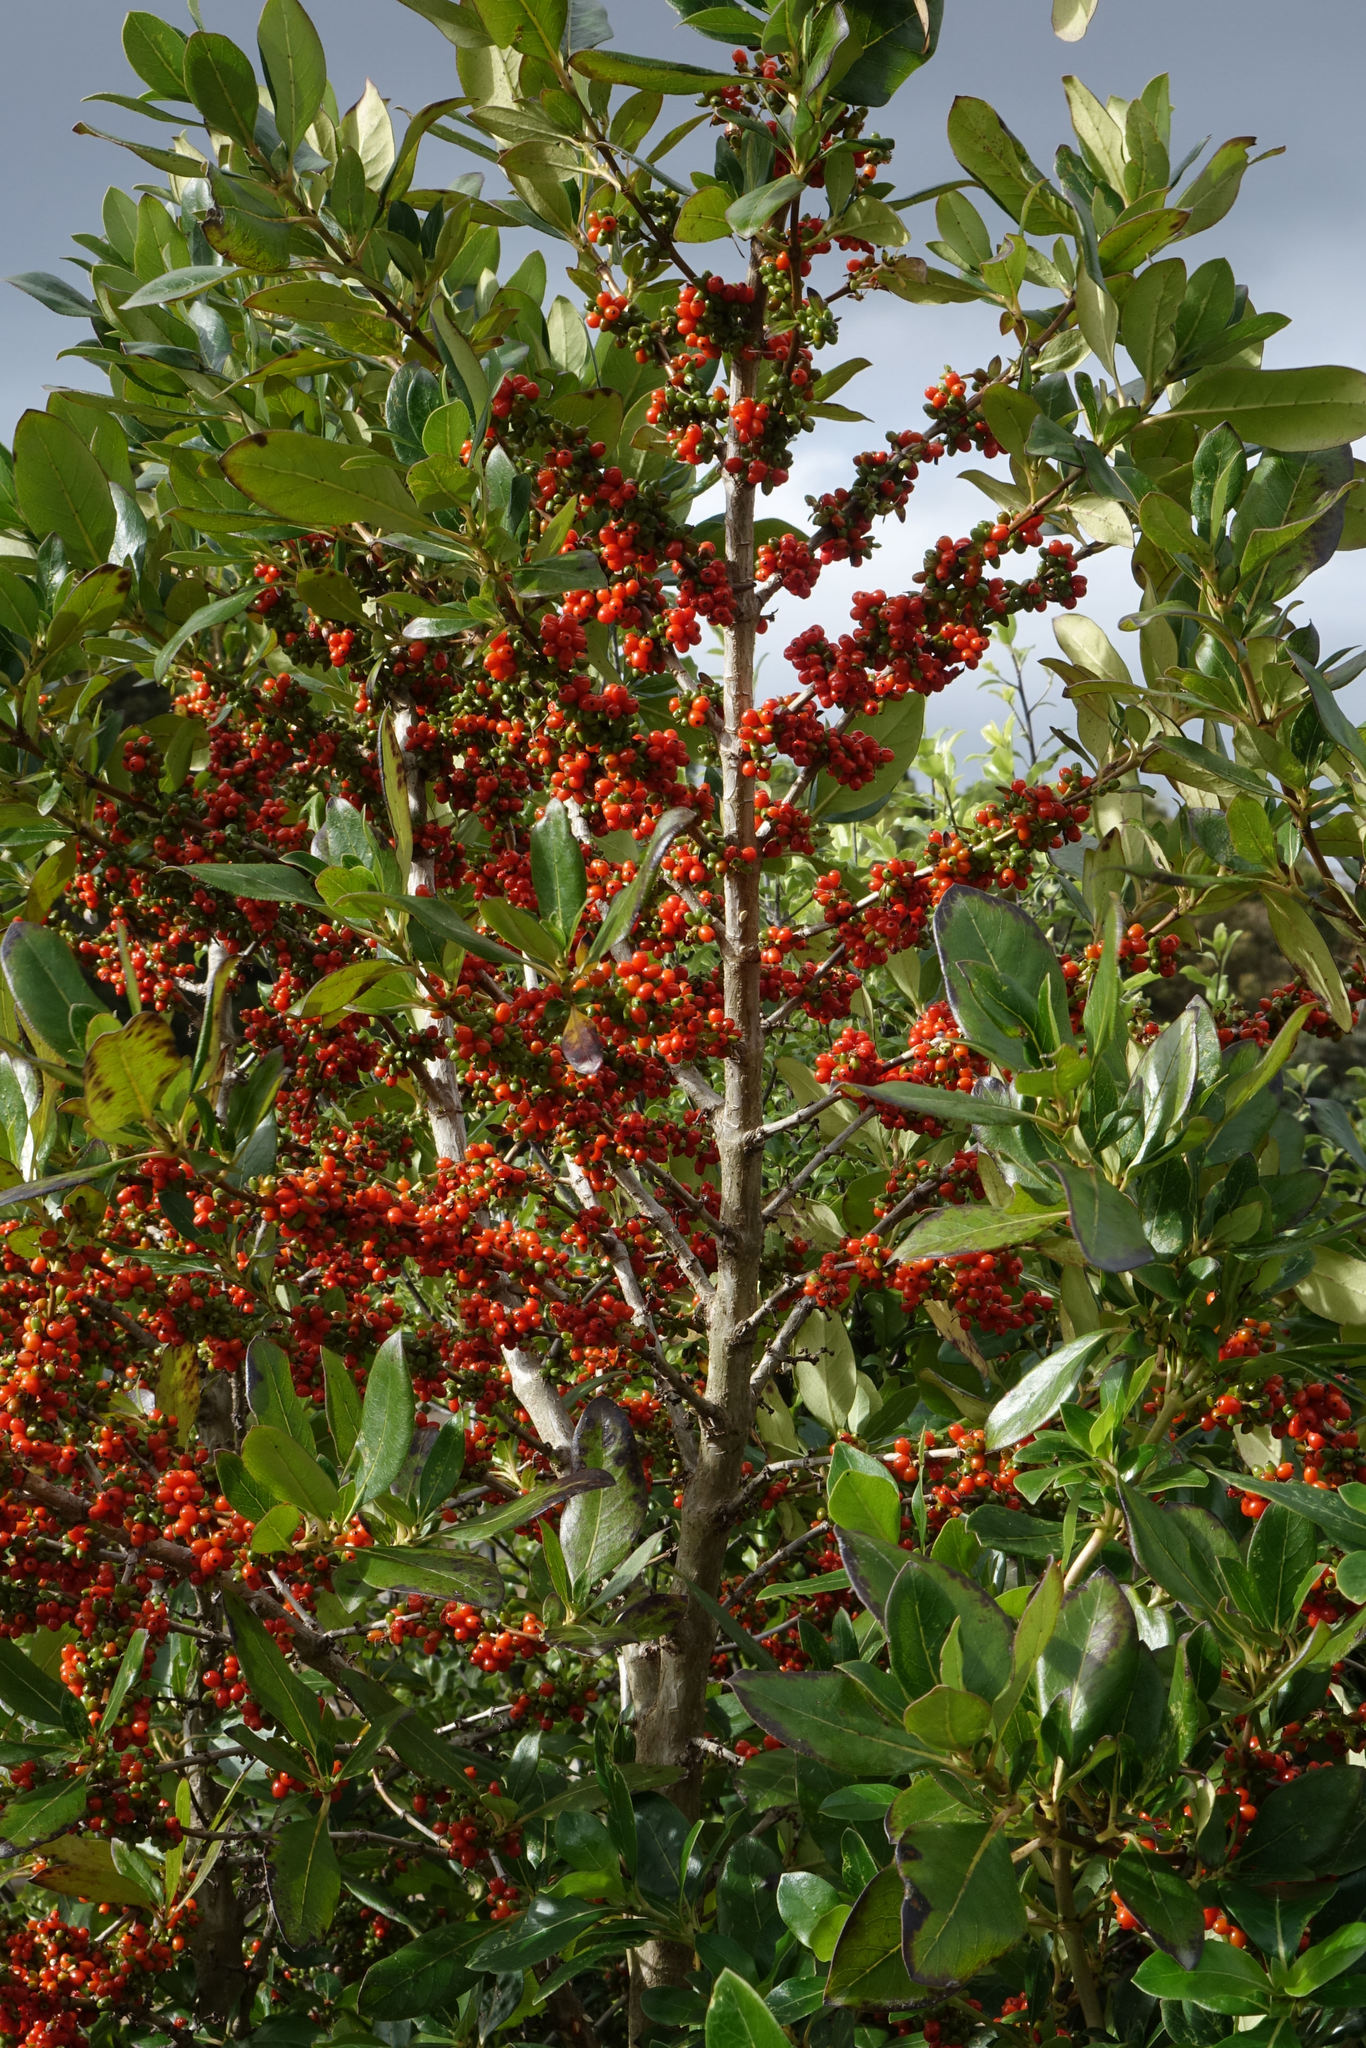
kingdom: Plantae
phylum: Tracheophyta
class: Magnoliopsida
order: Gentianales
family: Rubiaceae
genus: Coprosma
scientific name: Coprosma robusta
